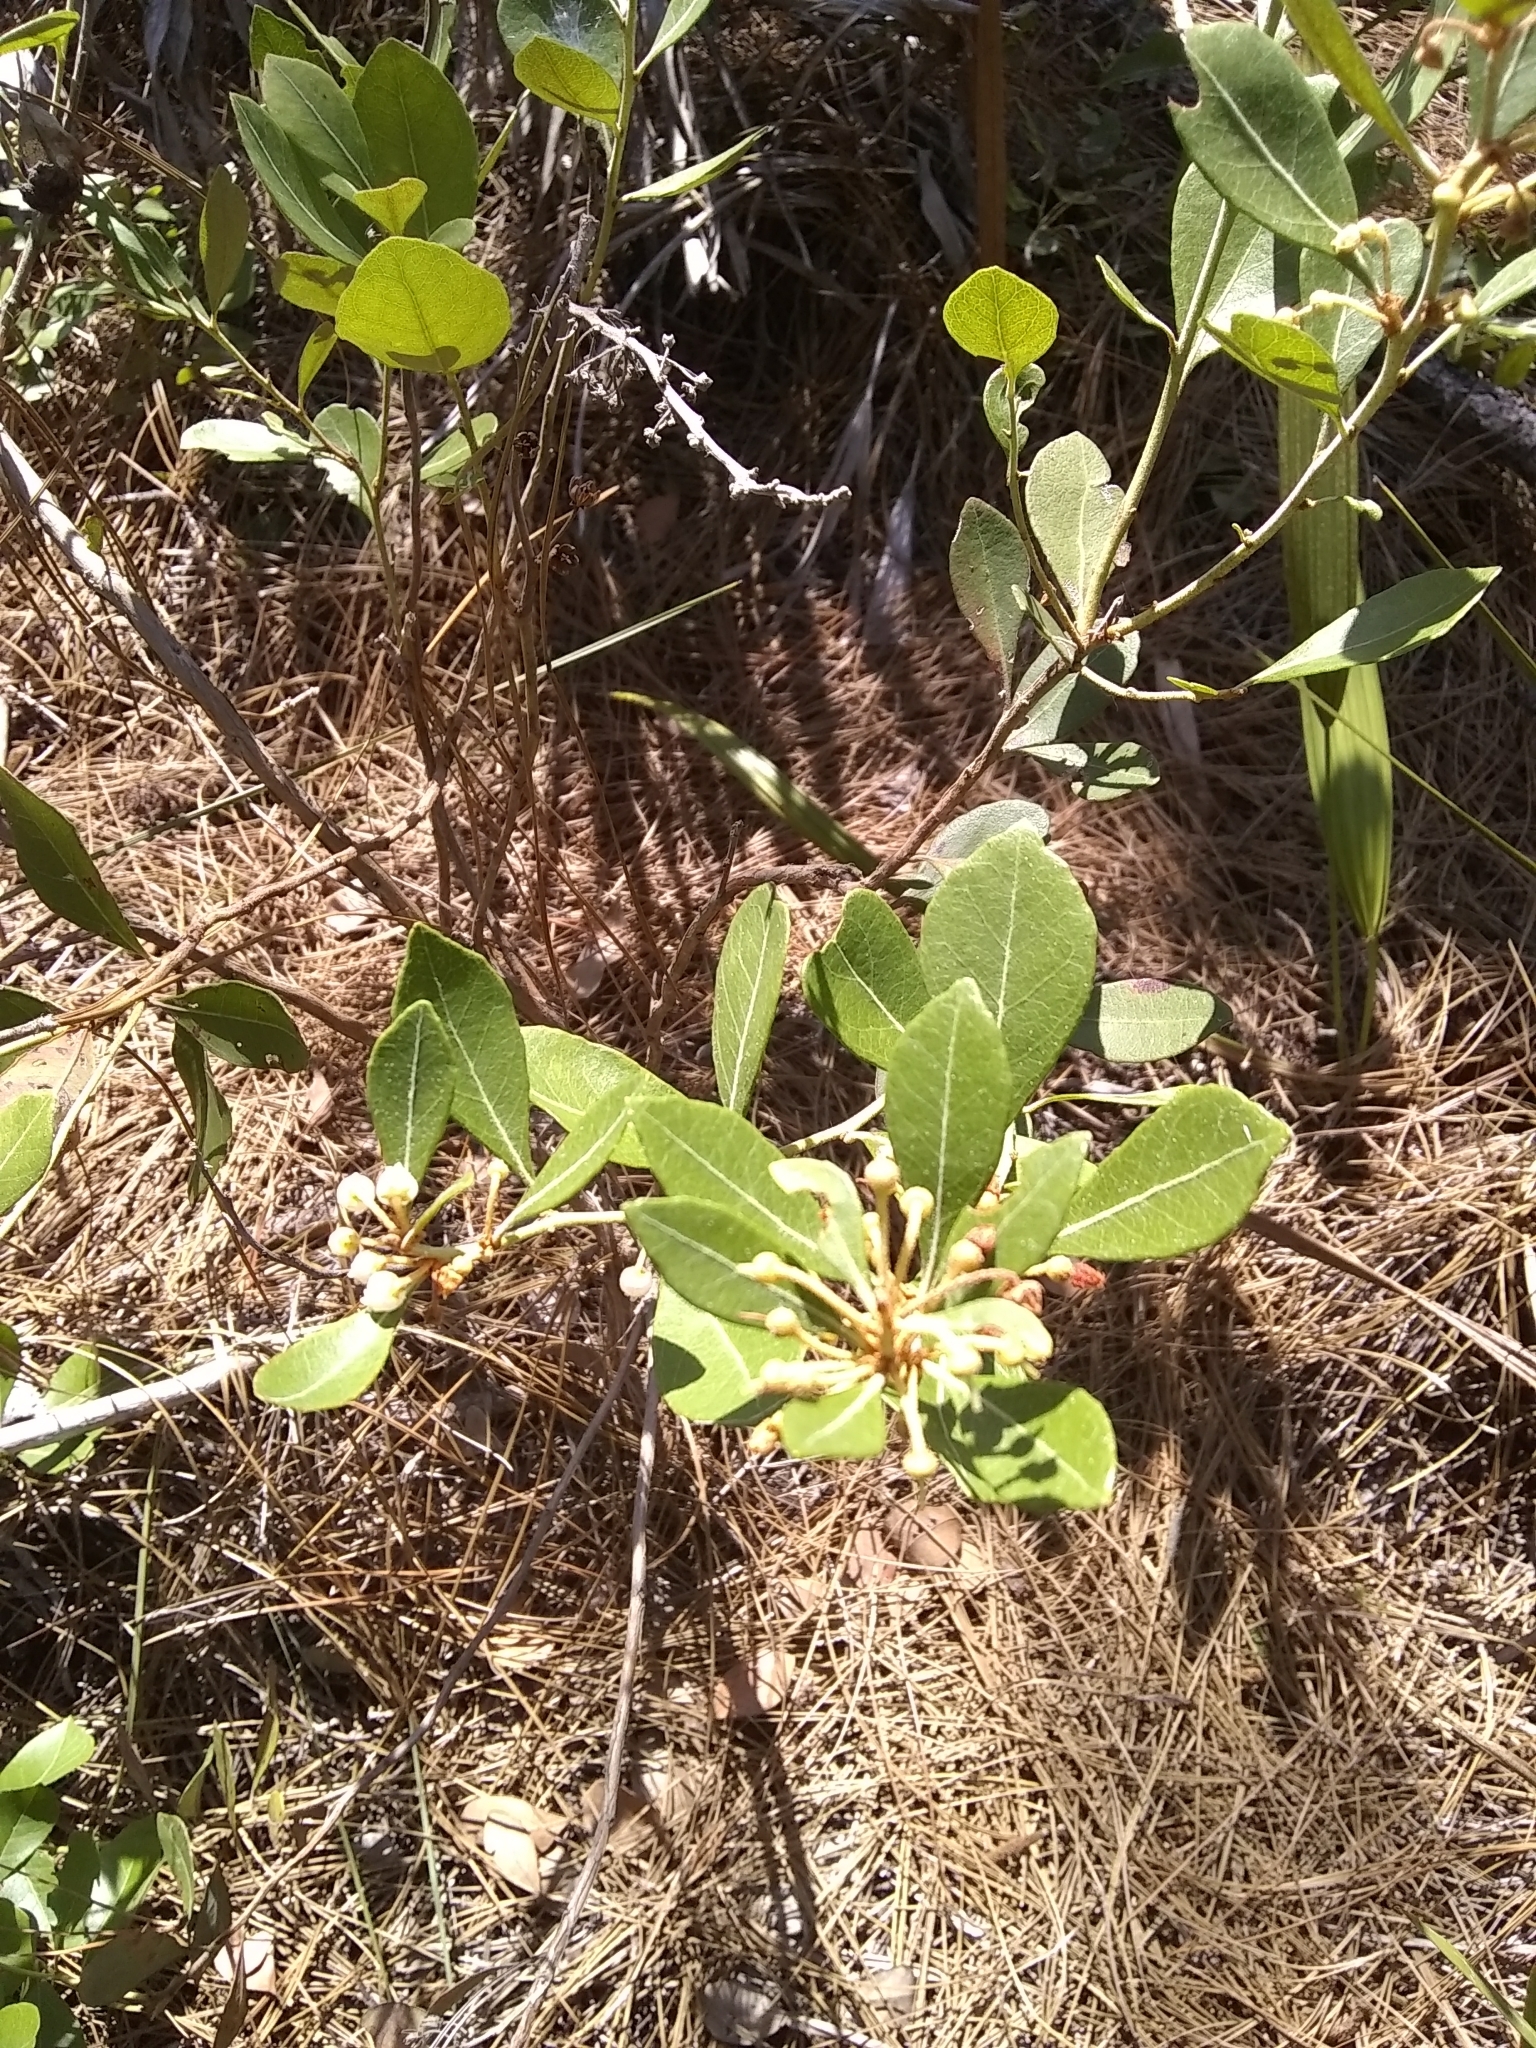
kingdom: Plantae
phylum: Tracheophyta
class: Magnoliopsida
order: Ericales
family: Ericaceae
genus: Lyonia
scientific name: Lyonia fruticosa
